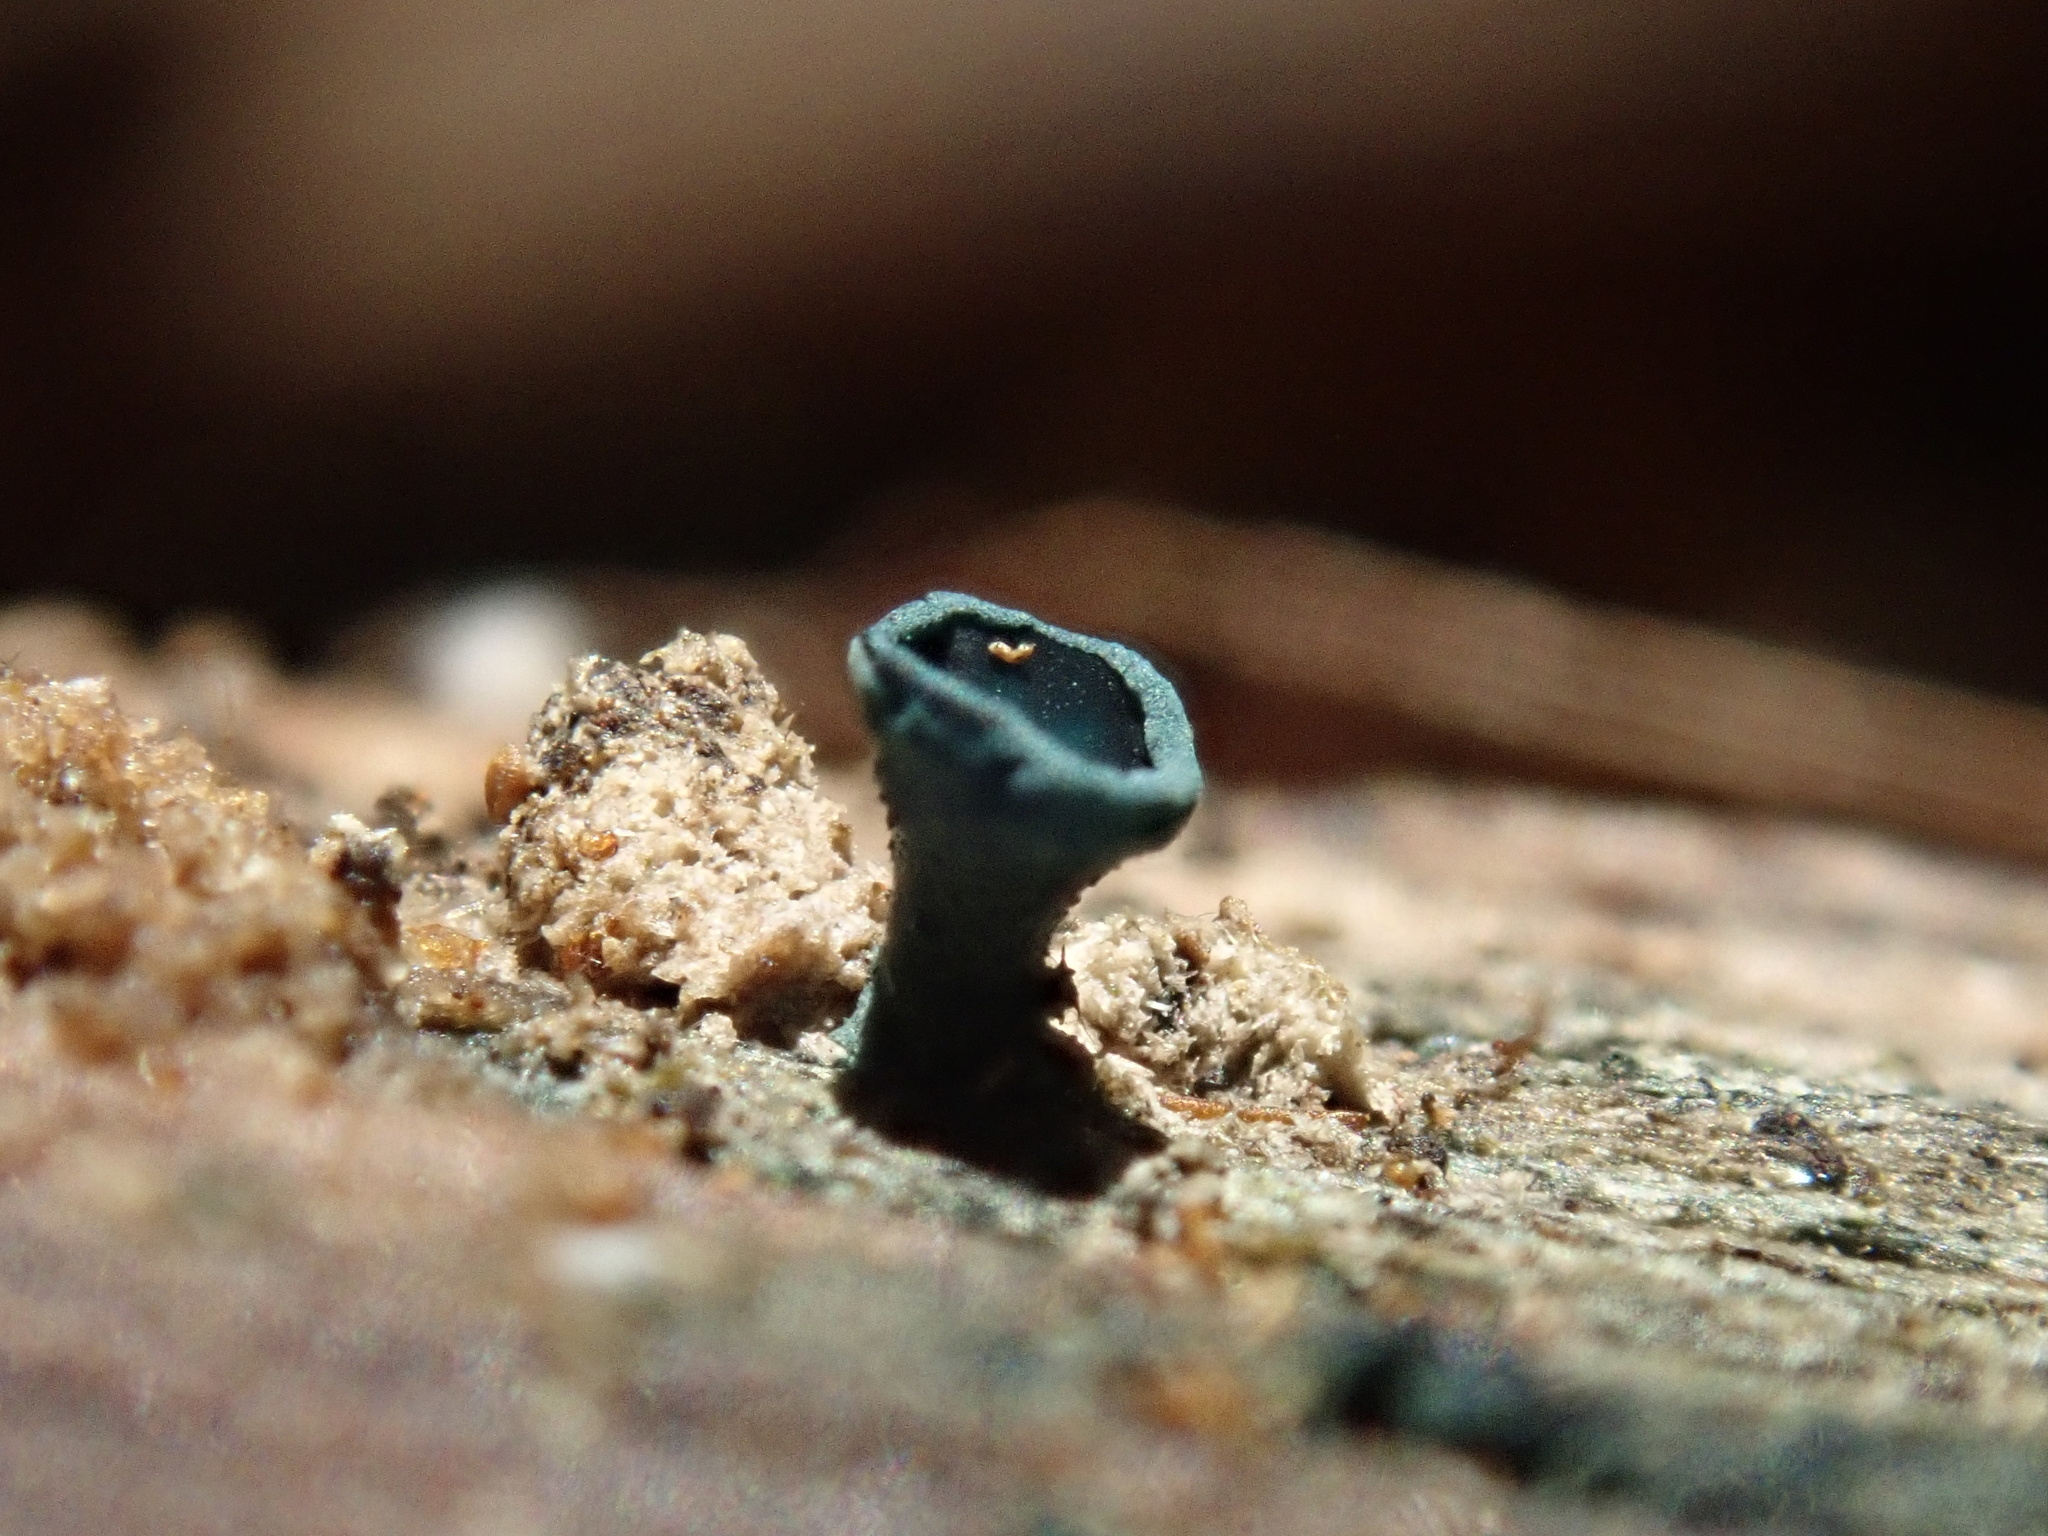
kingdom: Fungi
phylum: Ascomycota
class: Leotiomycetes
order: Helotiales
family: Chlorociboriaceae
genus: Chlorociboria
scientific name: Chlorociboria
